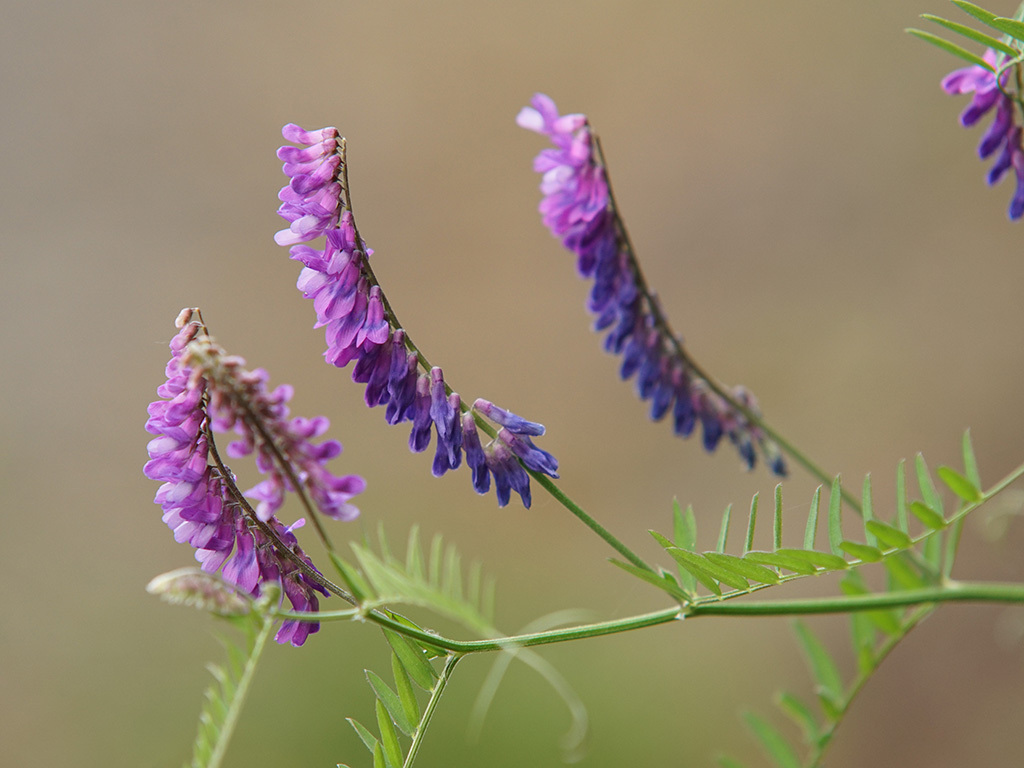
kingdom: Plantae
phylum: Tracheophyta
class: Magnoliopsida
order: Fabales
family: Fabaceae
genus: Vicia
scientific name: Vicia cracca
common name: Bird vetch
